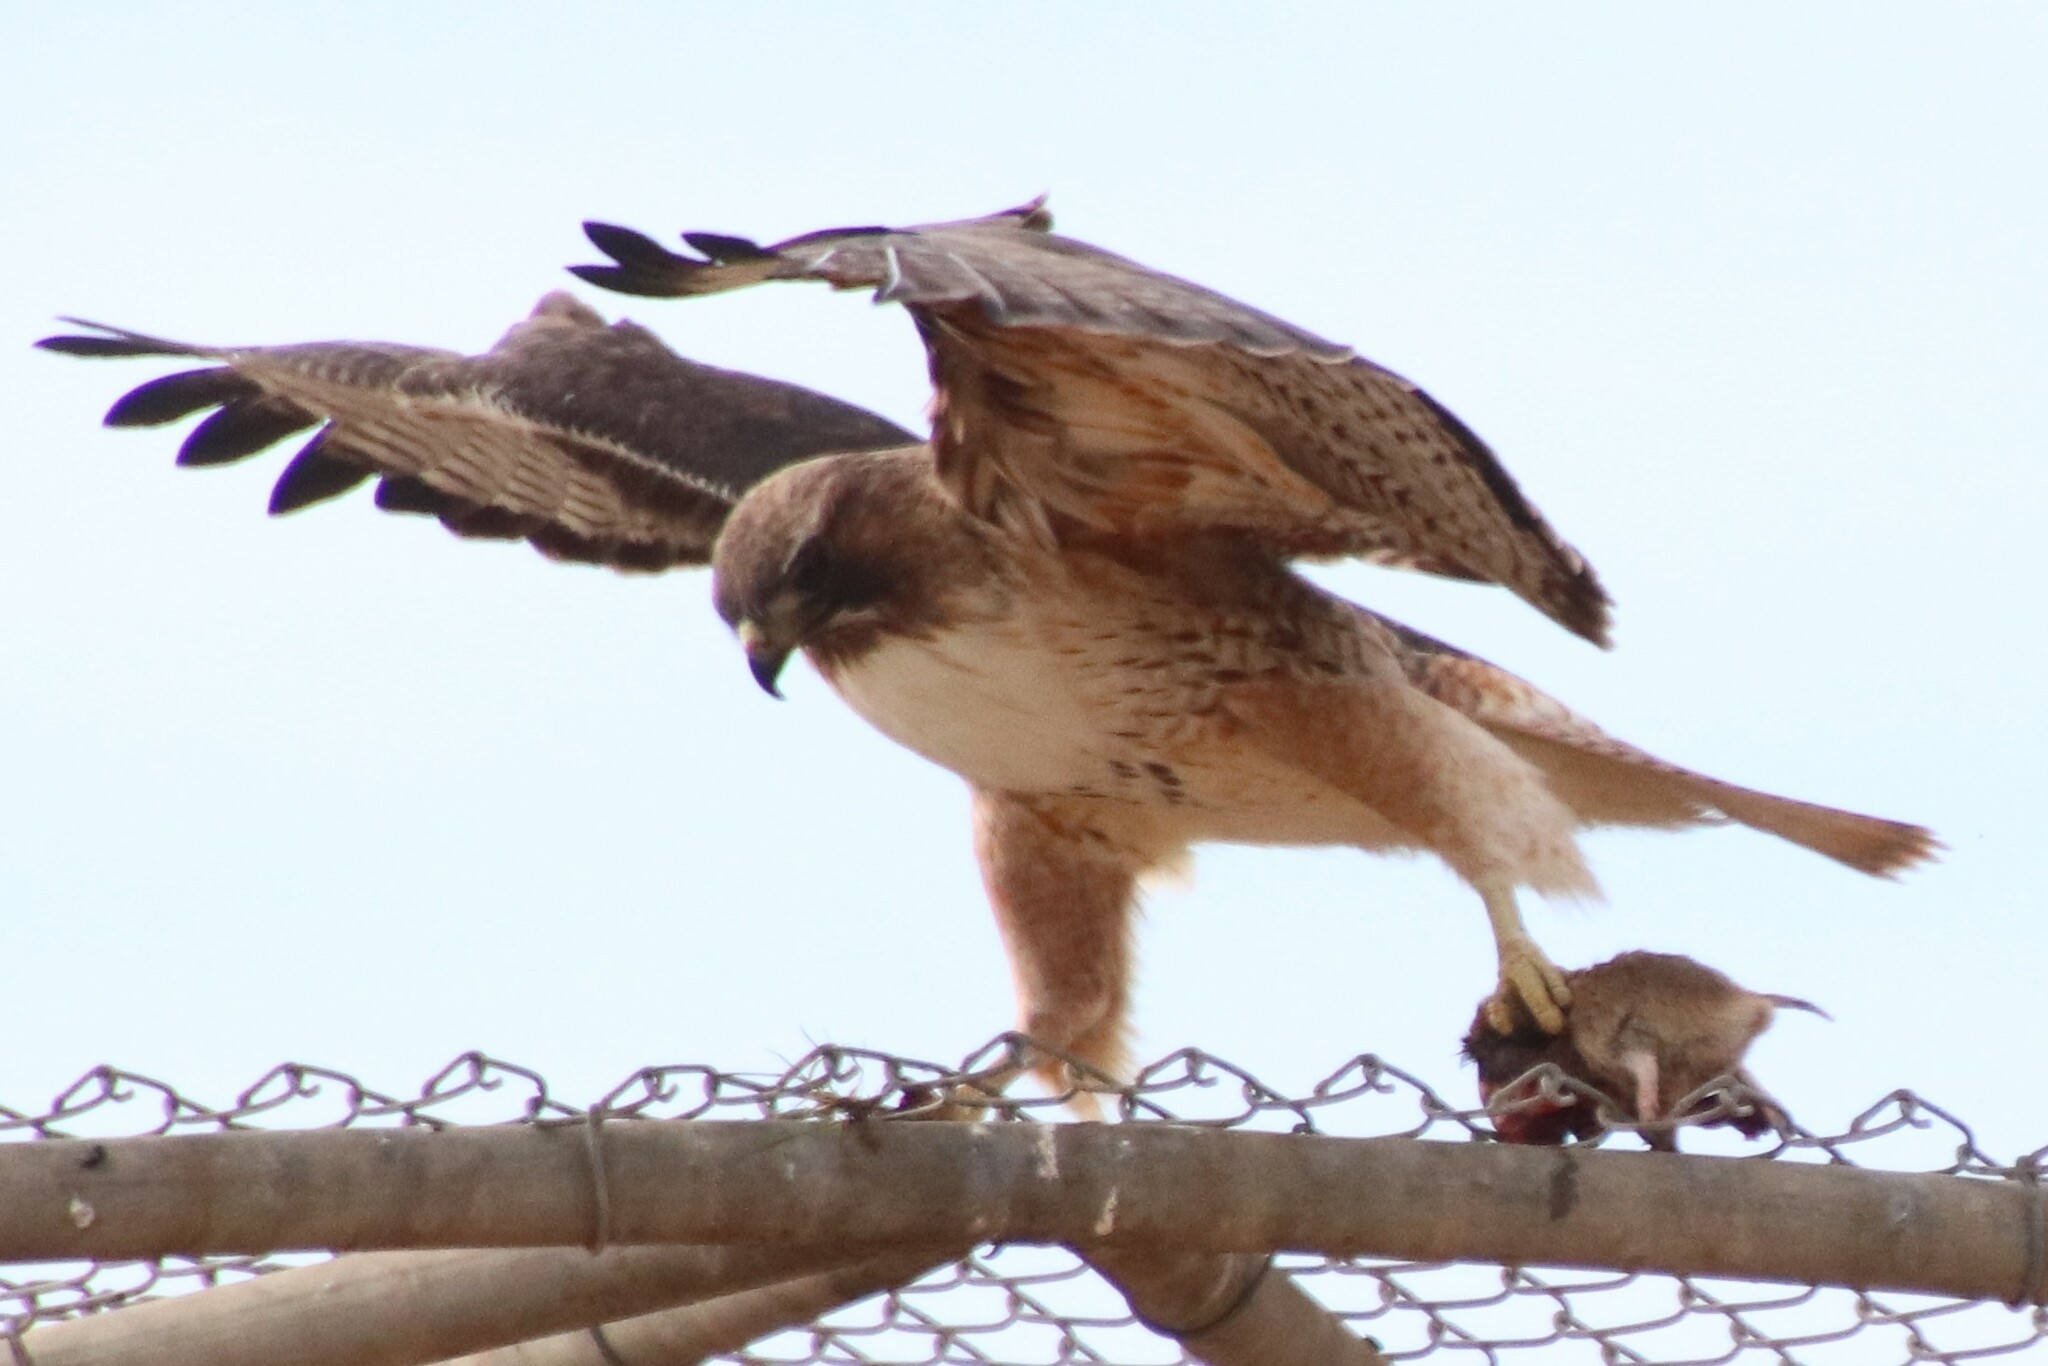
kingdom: Animalia
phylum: Chordata
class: Aves
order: Accipitriformes
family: Accipitridae
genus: Buteo
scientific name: Buteo jamaicensis
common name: Red-tailed hawk
